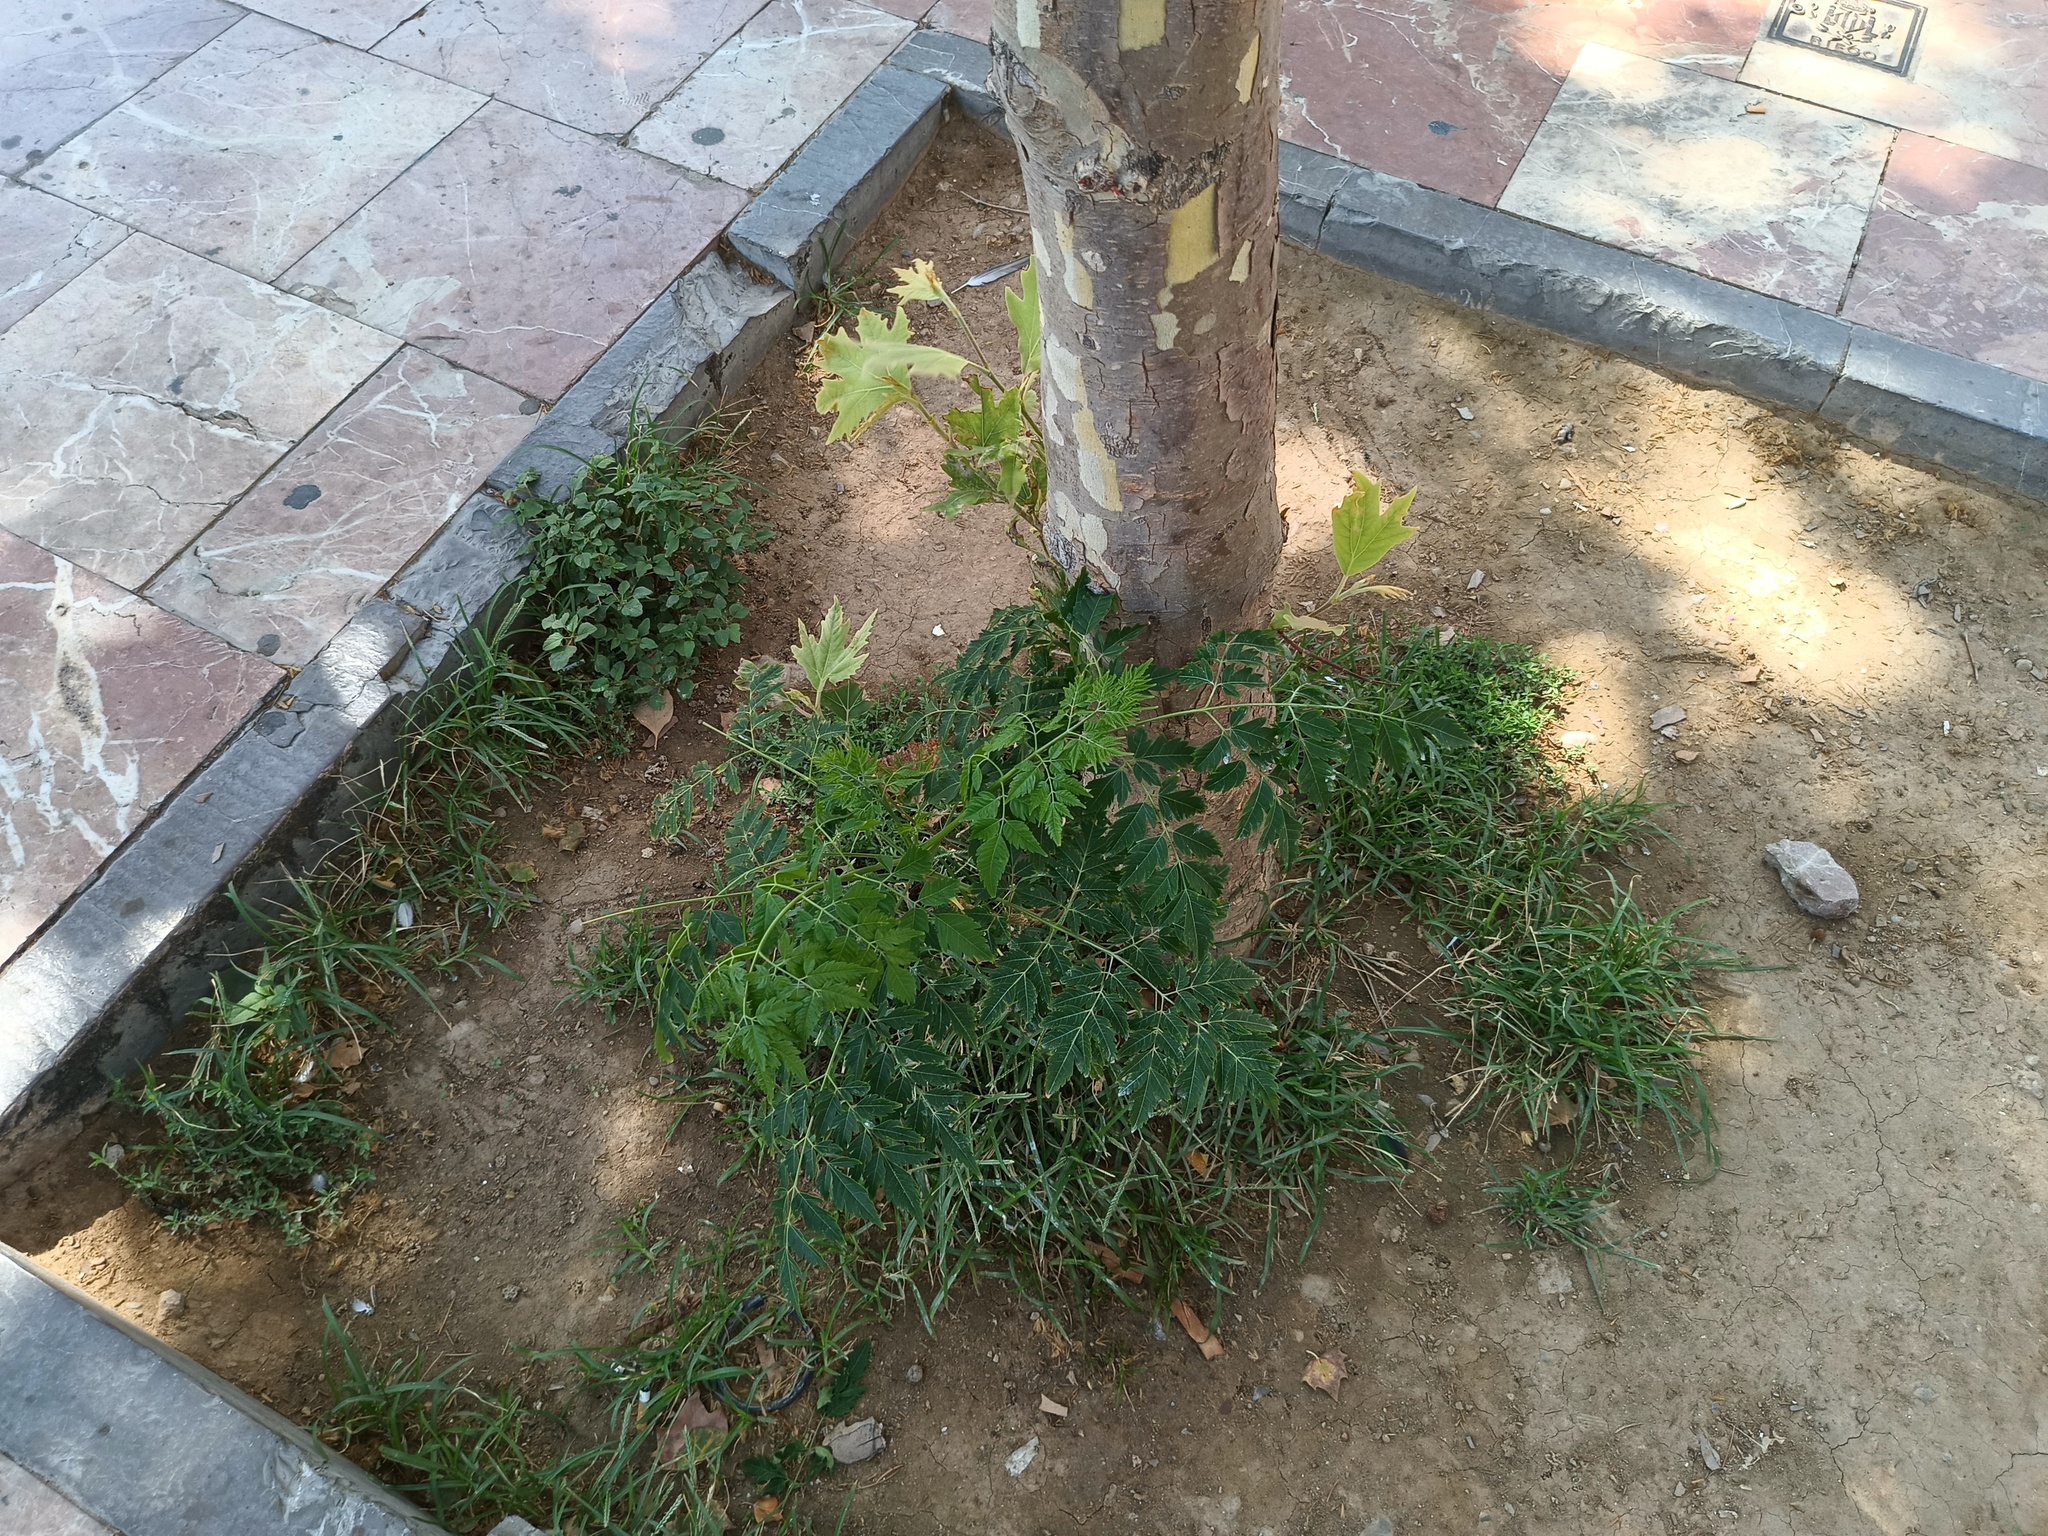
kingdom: Plantae
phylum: Tracheophyta
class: Magnoliopsida
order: Sapindales
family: Meliaceae
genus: Melia
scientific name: Melia azedarach
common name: Chinaberrytree
